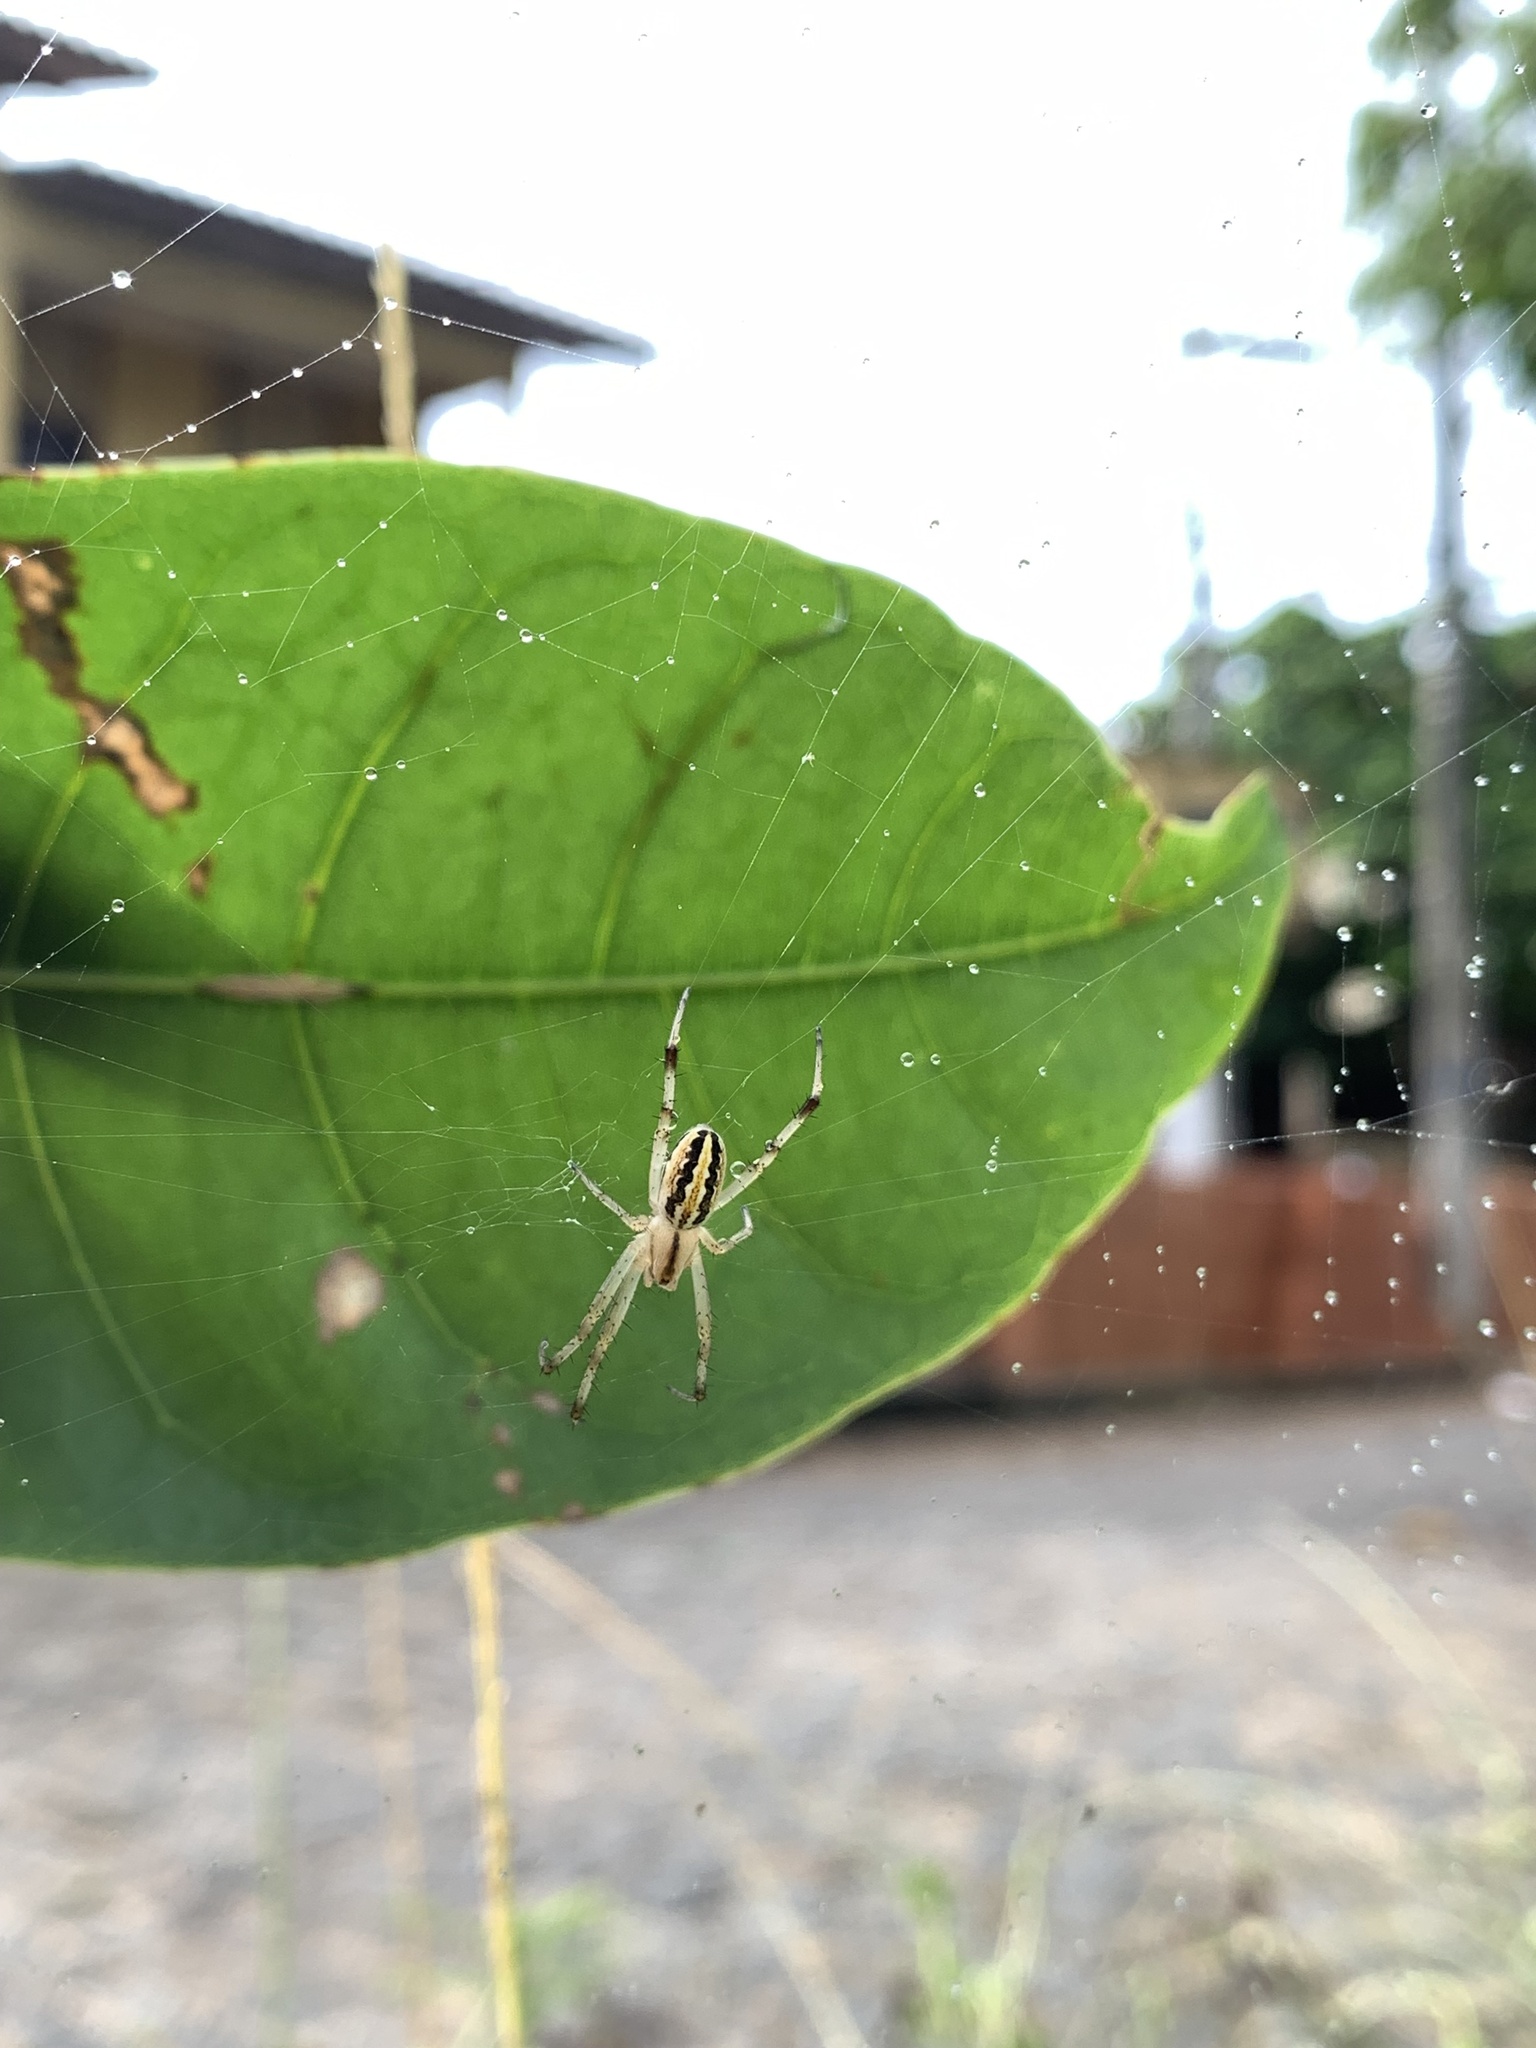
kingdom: Animalia
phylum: Arthropoda
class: Arachnida
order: Araneae
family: Araneidae
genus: Neoscona
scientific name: Neoscona moreli
